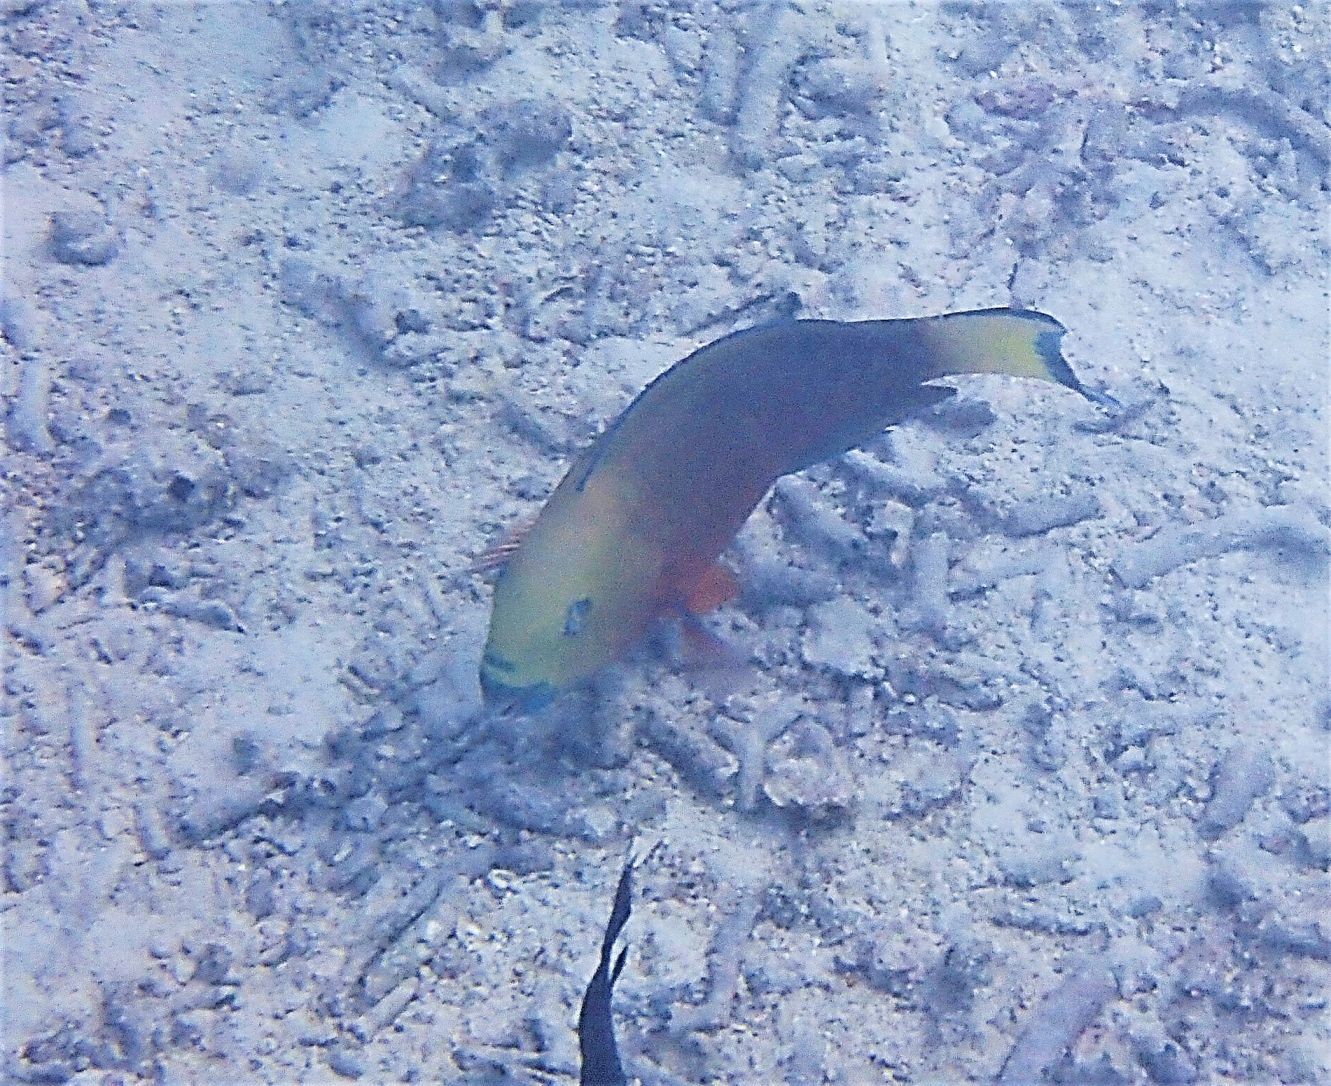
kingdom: Animalia
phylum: Chordata
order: Perciformes
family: Scaridae
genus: Chlorurus
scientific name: Chlorurus strongylocephalus
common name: Steephead parrotfish
